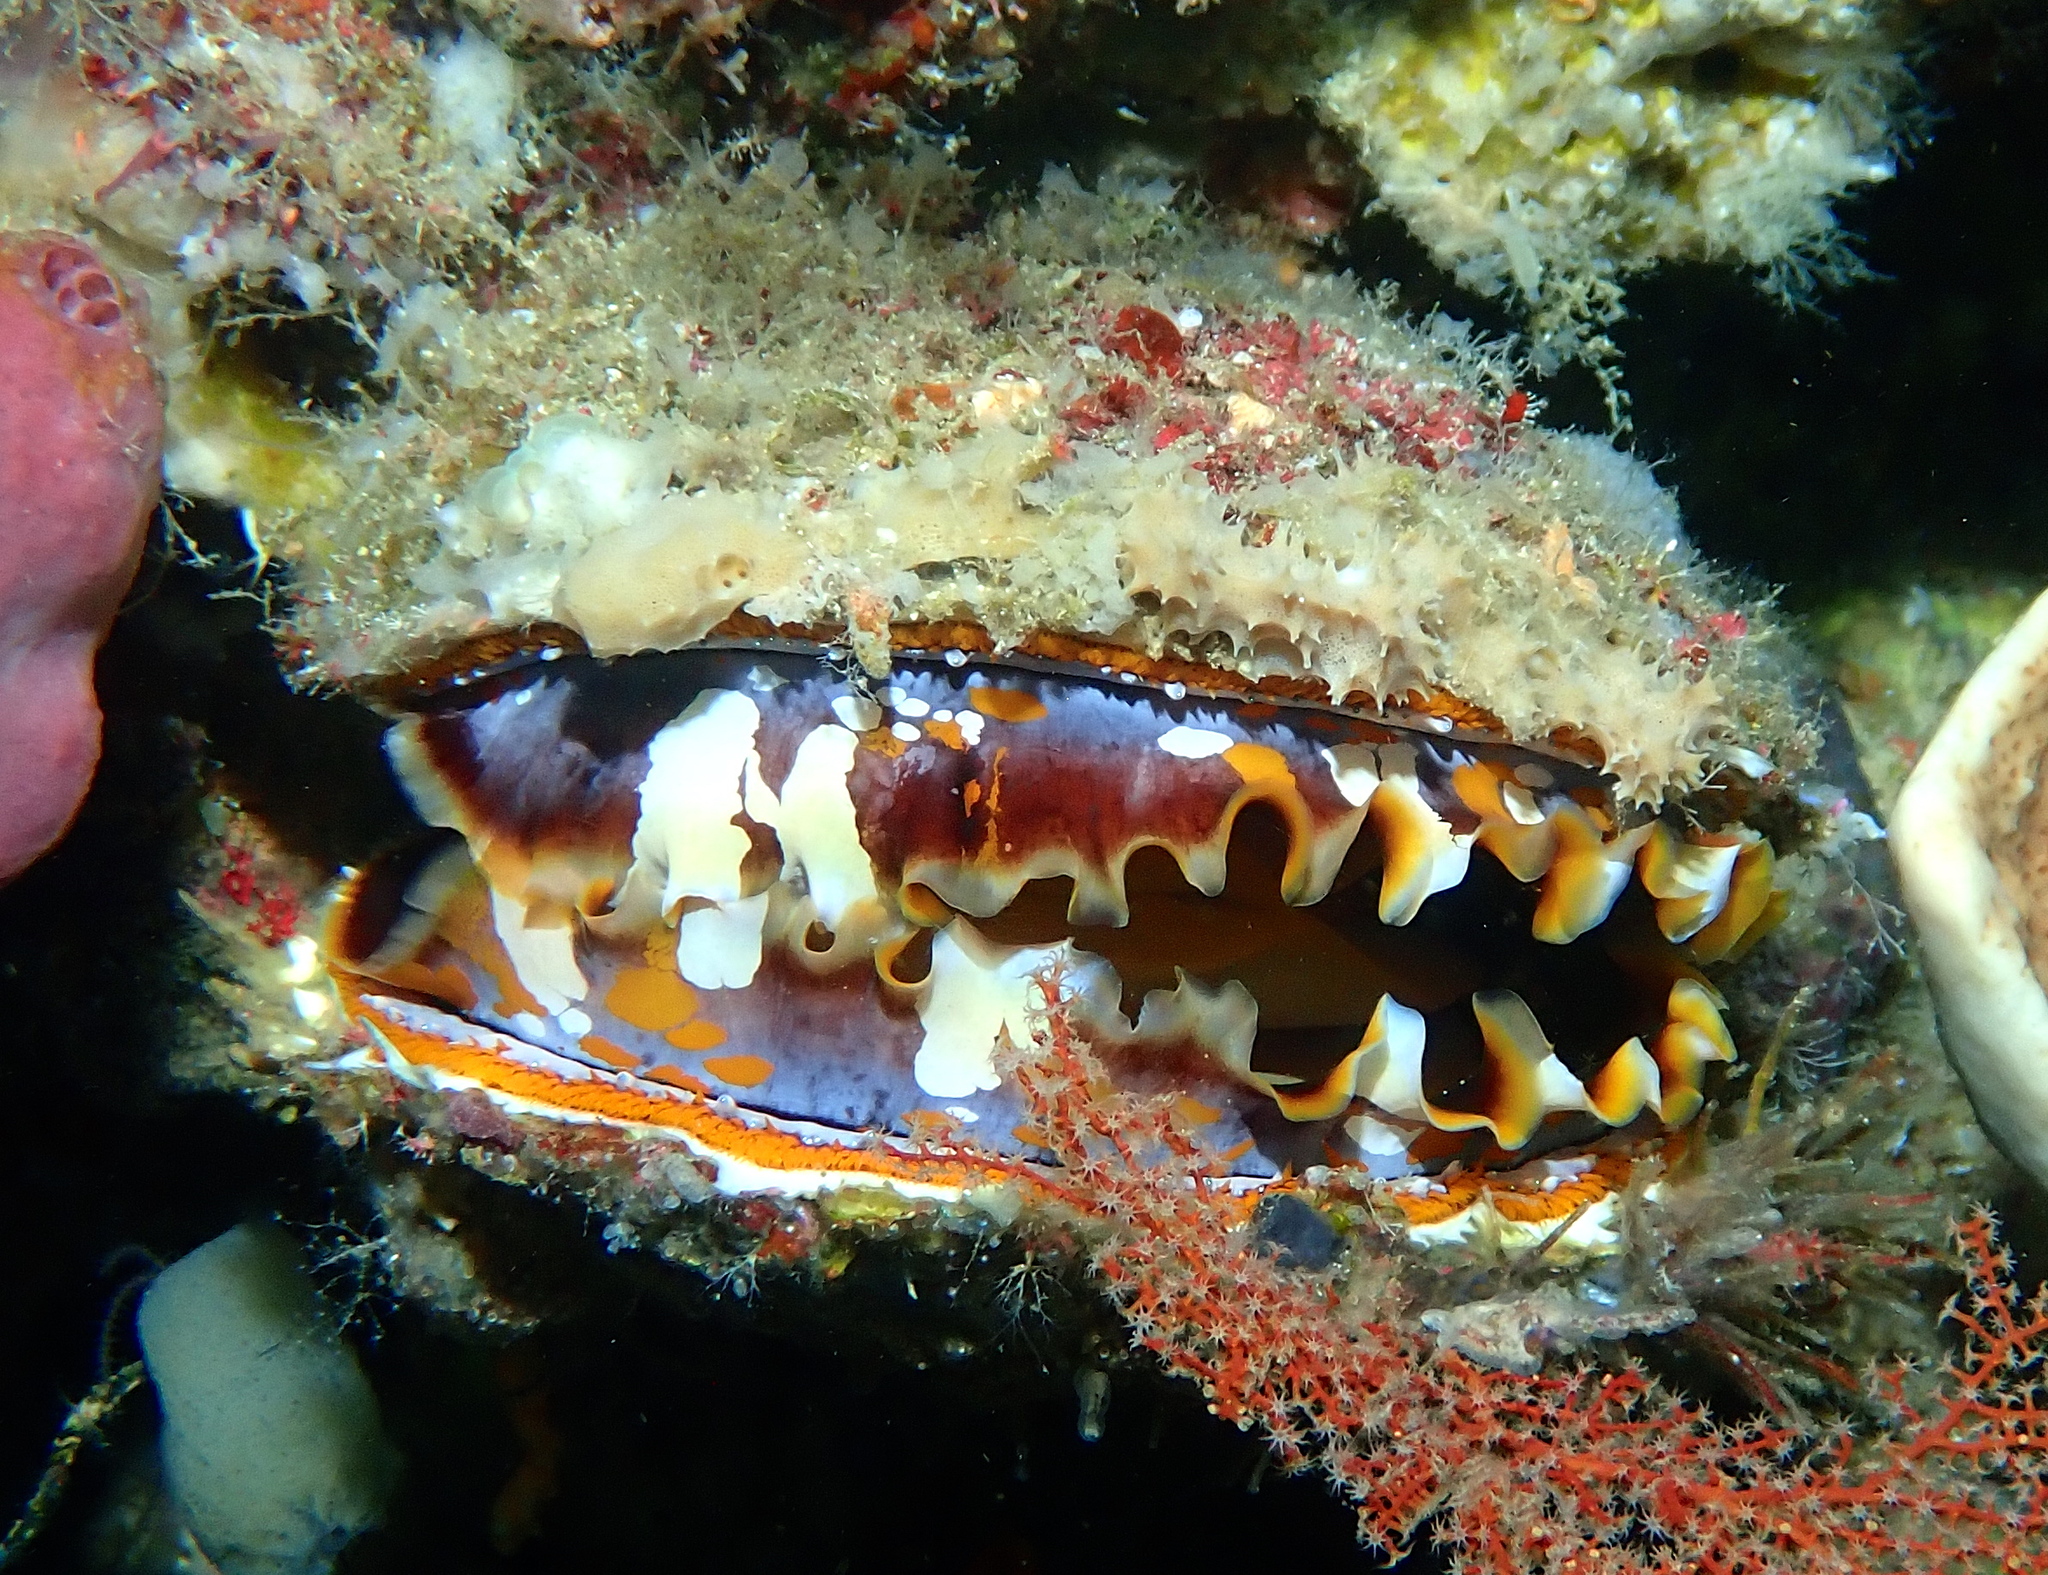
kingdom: Animalia
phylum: Mollusca
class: Bivalvia
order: Pectinida
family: Spondylidae
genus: Spondylus
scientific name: Spondylus varius
